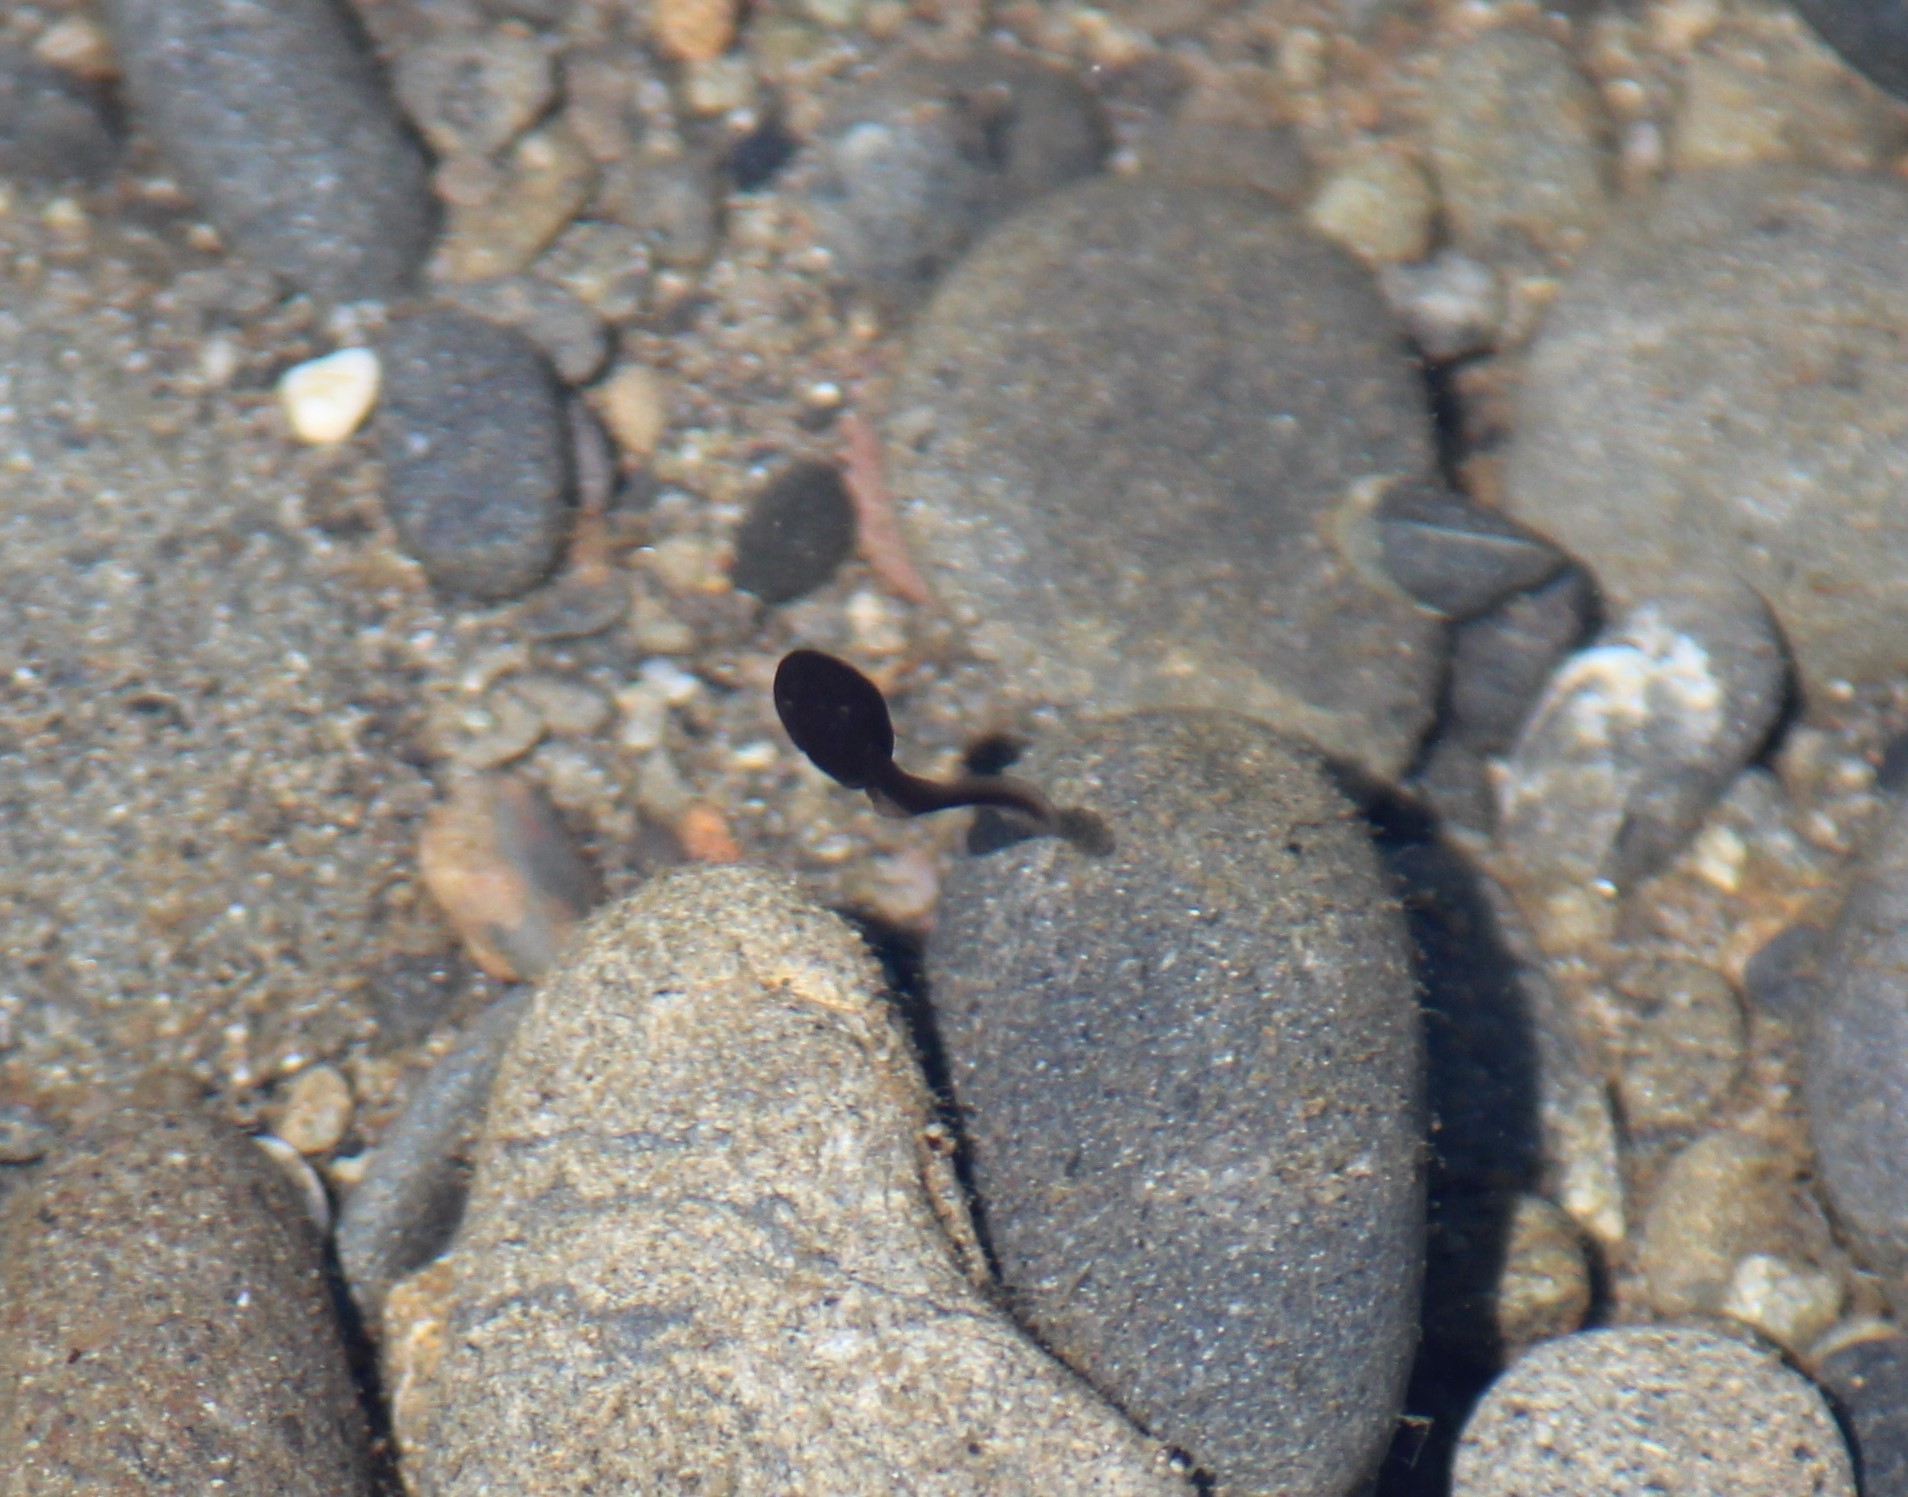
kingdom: Animalia
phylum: Chordata
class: Amphibia
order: Anura
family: Bufonidae
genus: Anaxyrus
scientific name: Anaxyrus boreas
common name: Western toad
